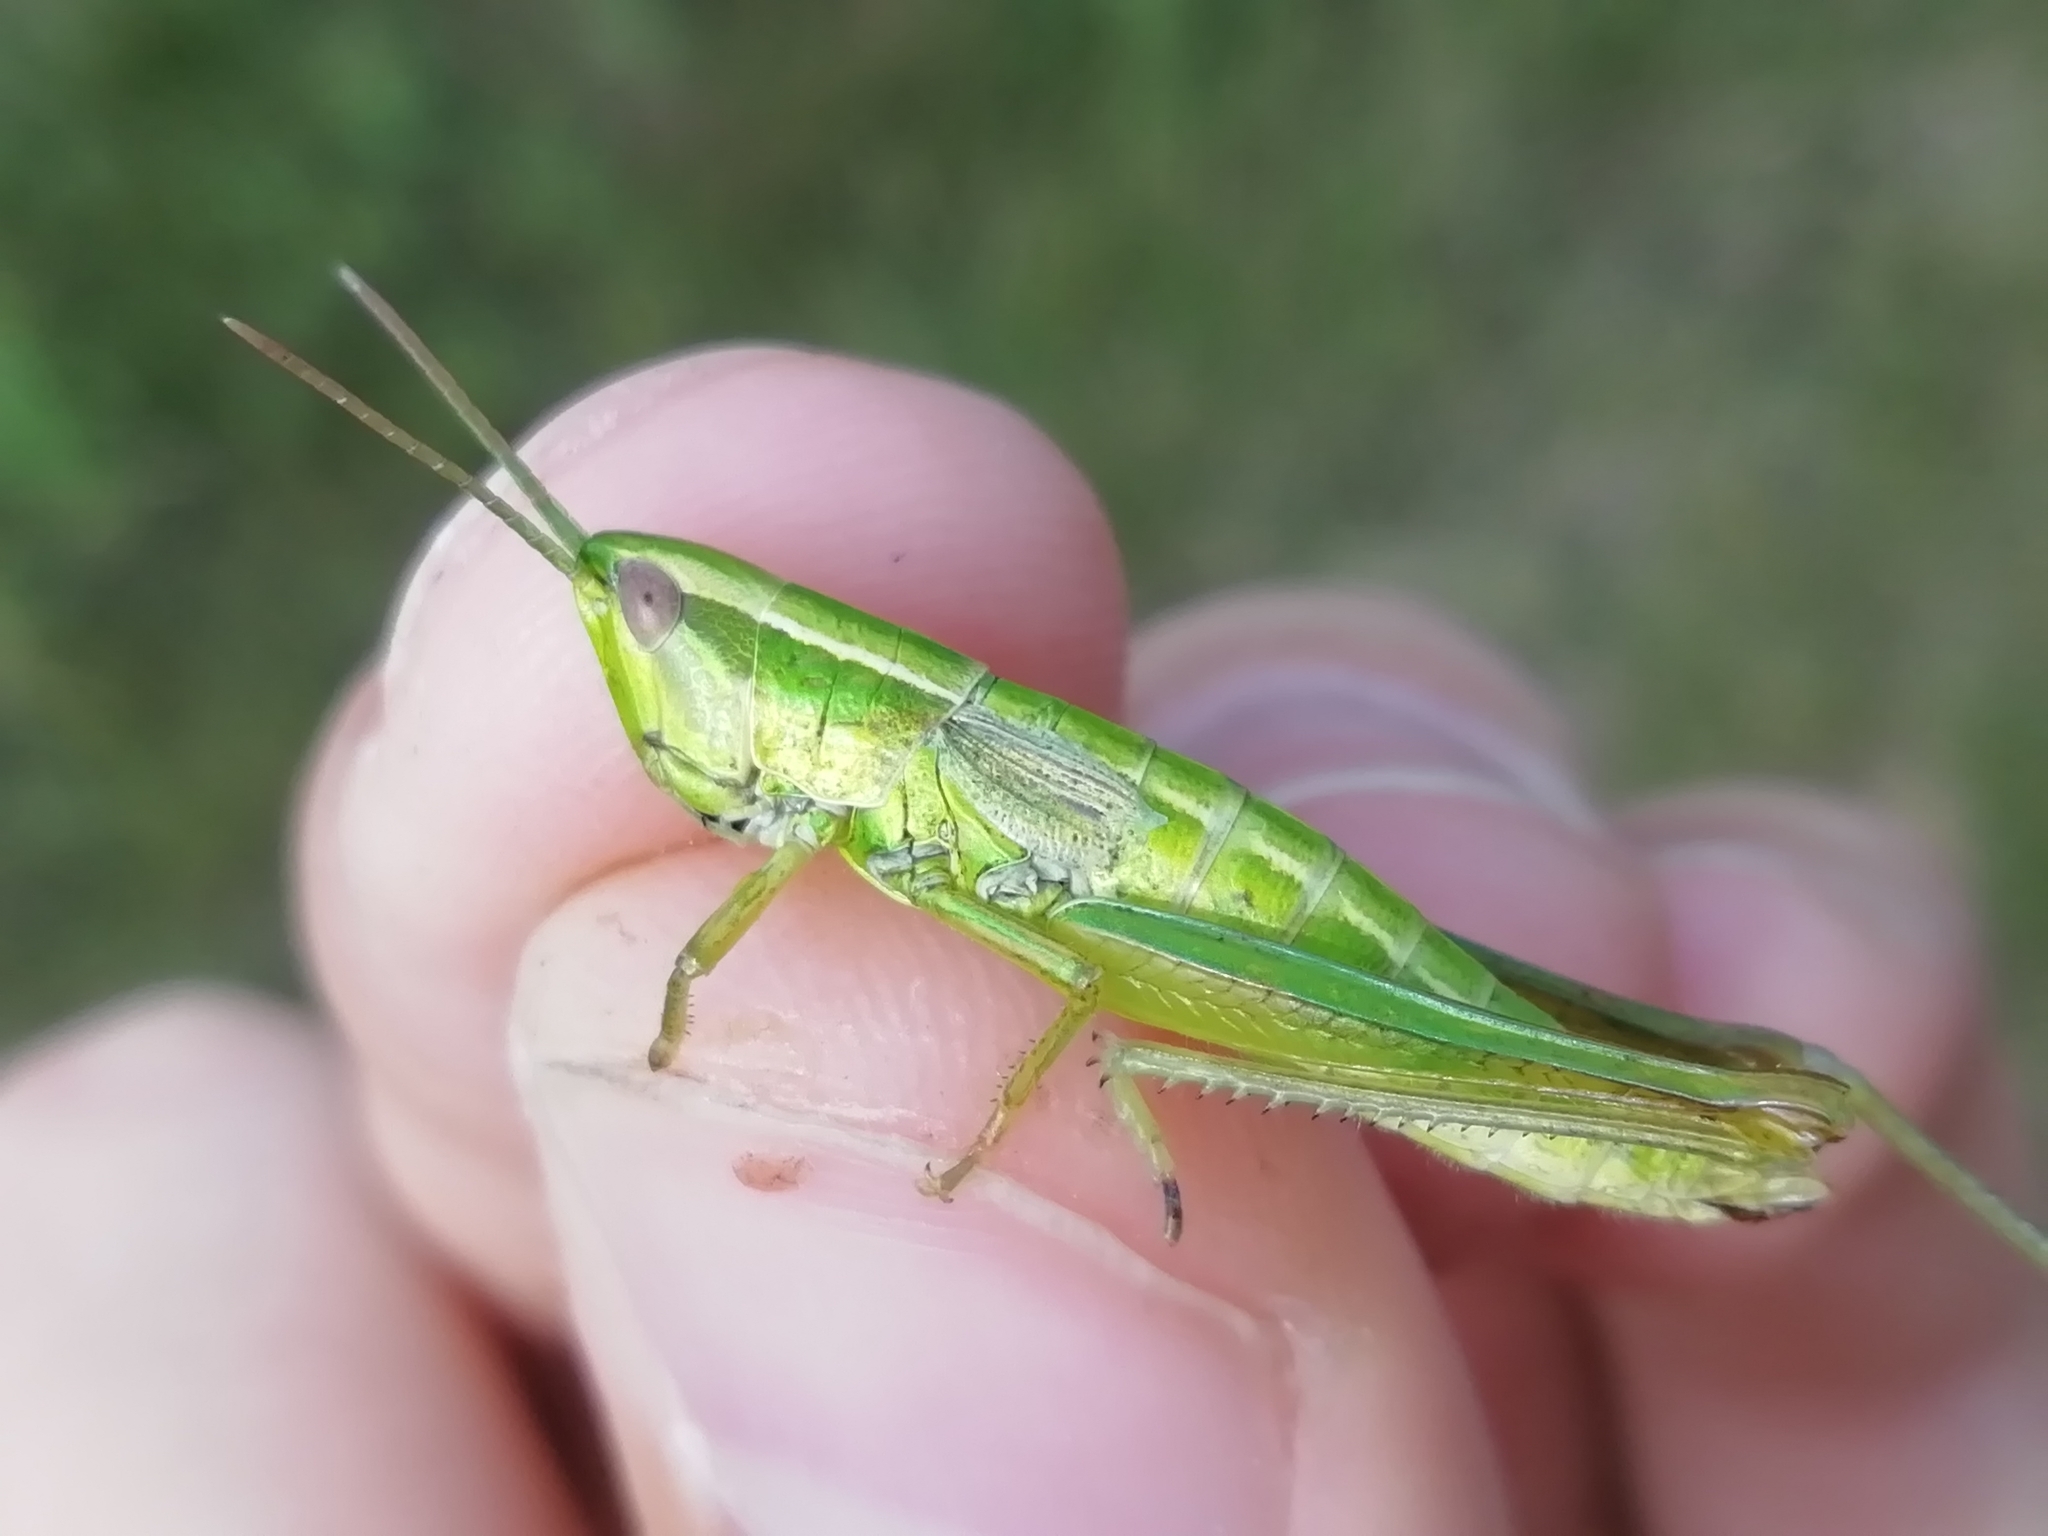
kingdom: Animalia
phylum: Arthropoda
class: Insecta
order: Orthoptera
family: Acrididae
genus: Euthystira
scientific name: Euthystira brachyptera
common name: Small gold grasshopper
